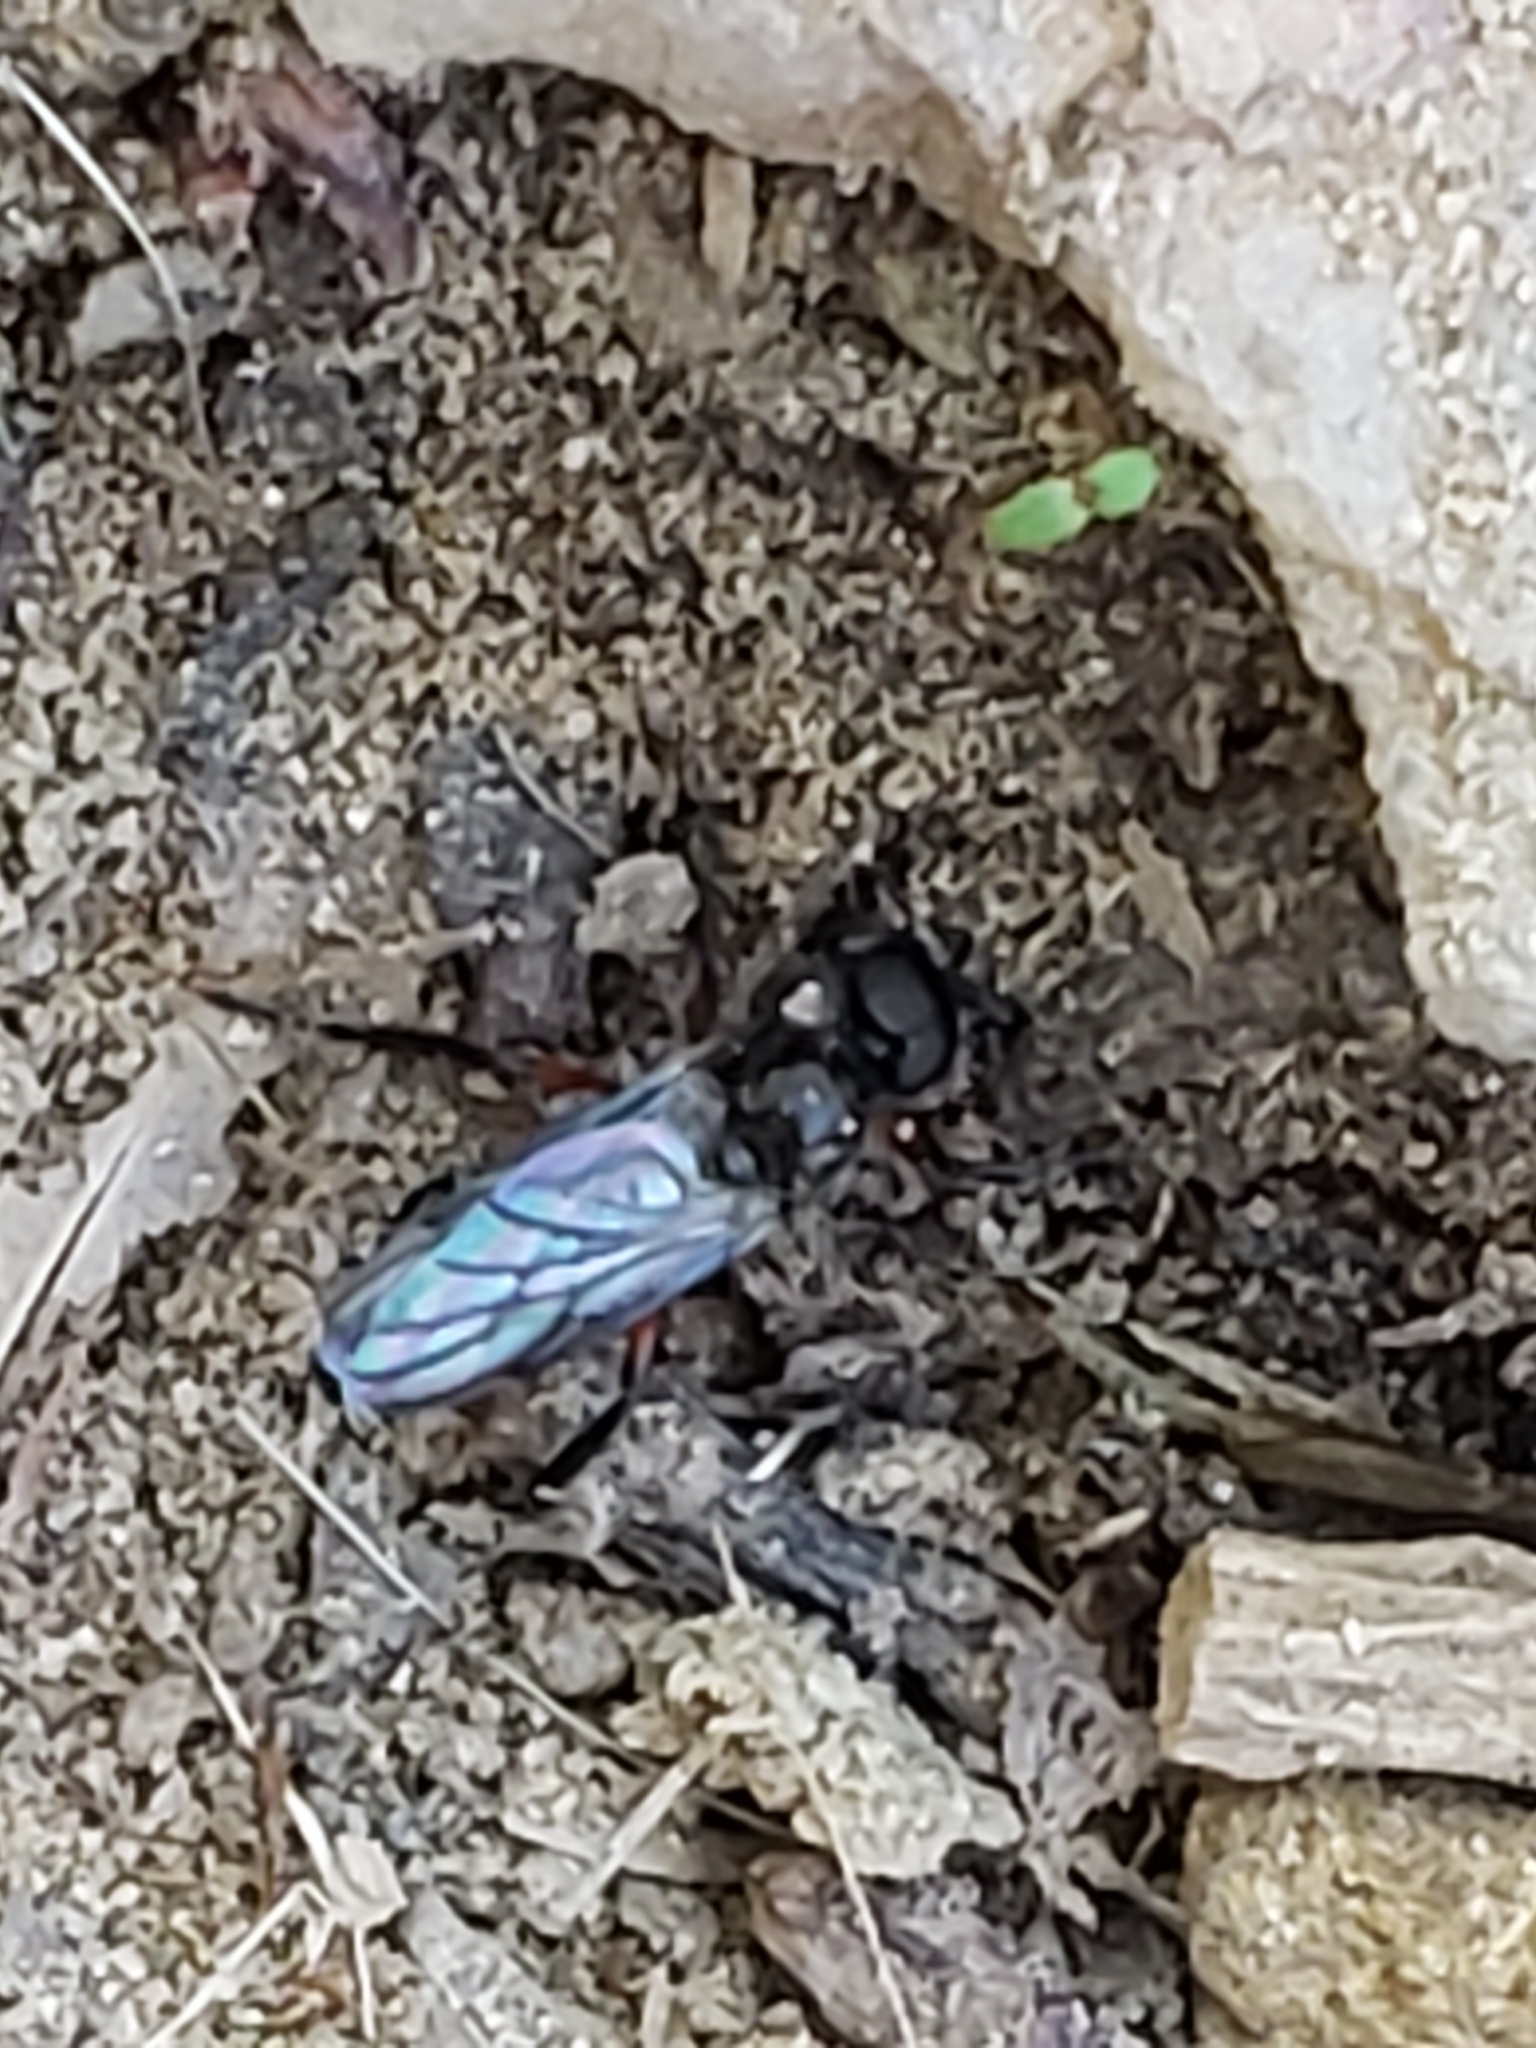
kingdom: Animalia
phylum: Arthropoda
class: Insecta
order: Diptera
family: Bibionidae
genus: Bibio
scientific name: Bibio femoratus
